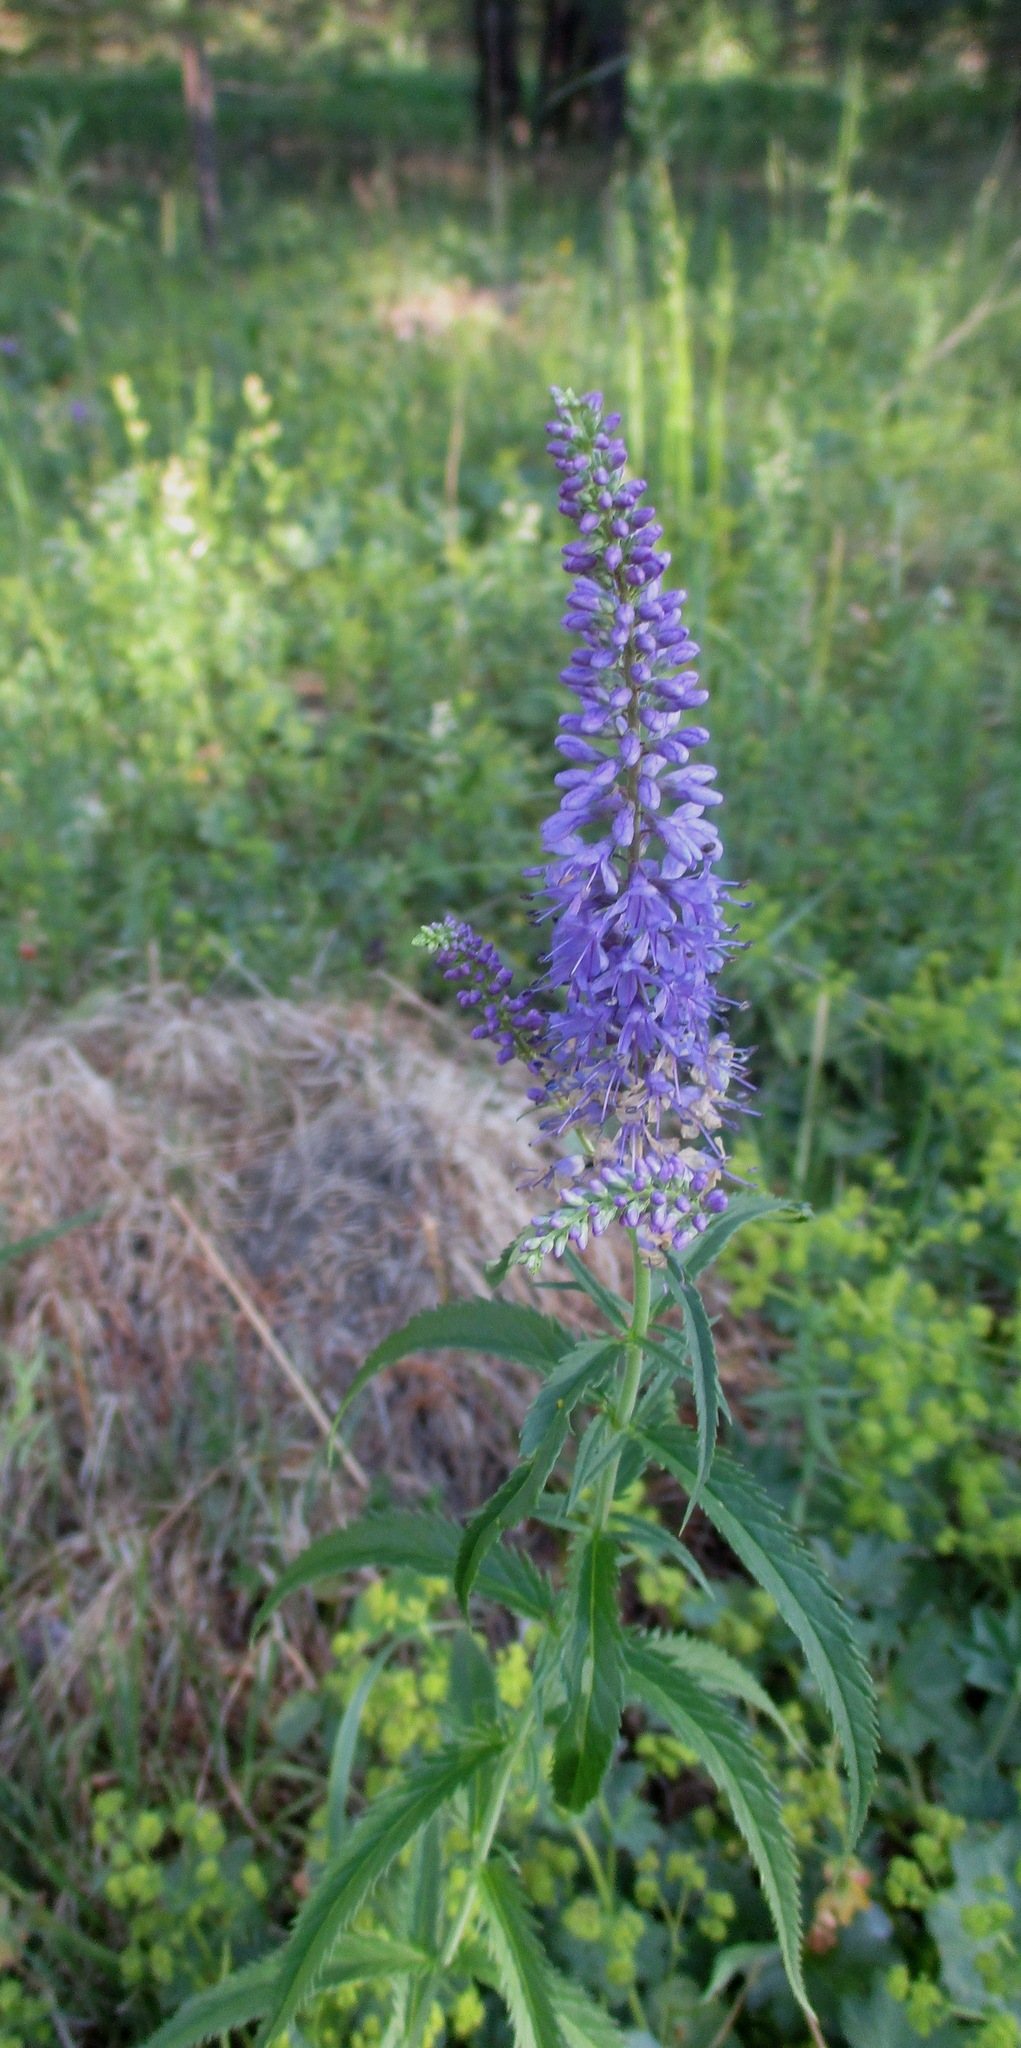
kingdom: Plantae
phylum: Tracheophyta
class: Magnoliopsida
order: Lamiales
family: Plantaginaceae
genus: Veronica
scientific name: Veronica longifolia
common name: Garden speedwell
